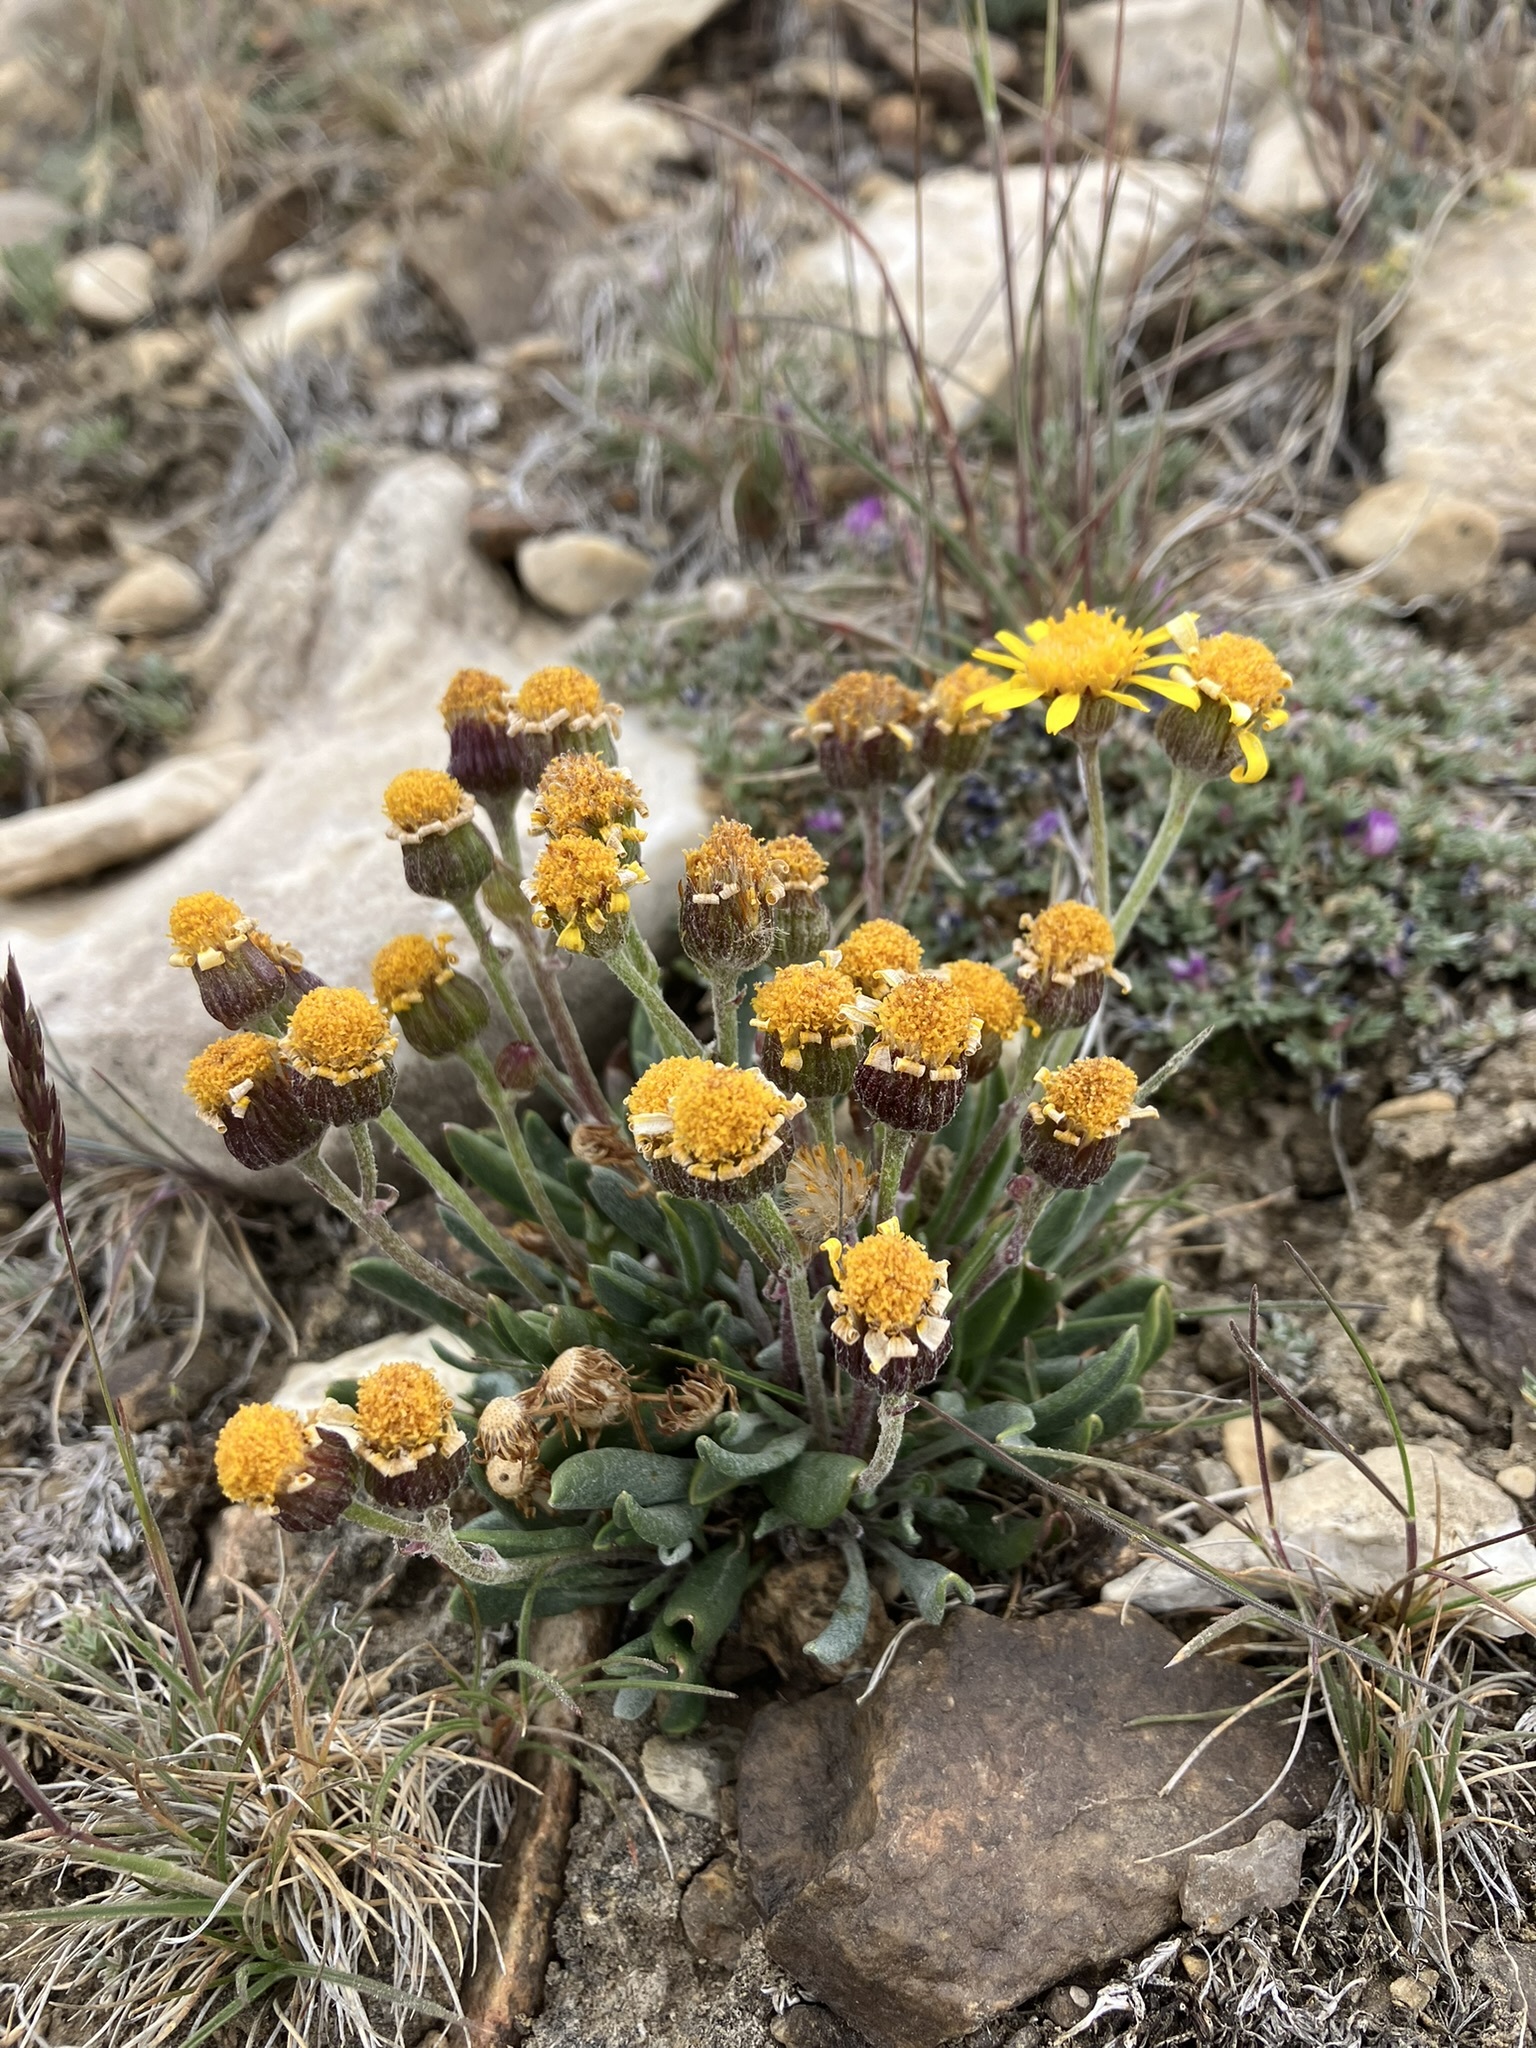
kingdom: Plantae
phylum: Tracheophyta
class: Magnoliopsida
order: Asterales
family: Asteraceae
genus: Packera
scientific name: Packera werneriifolia
